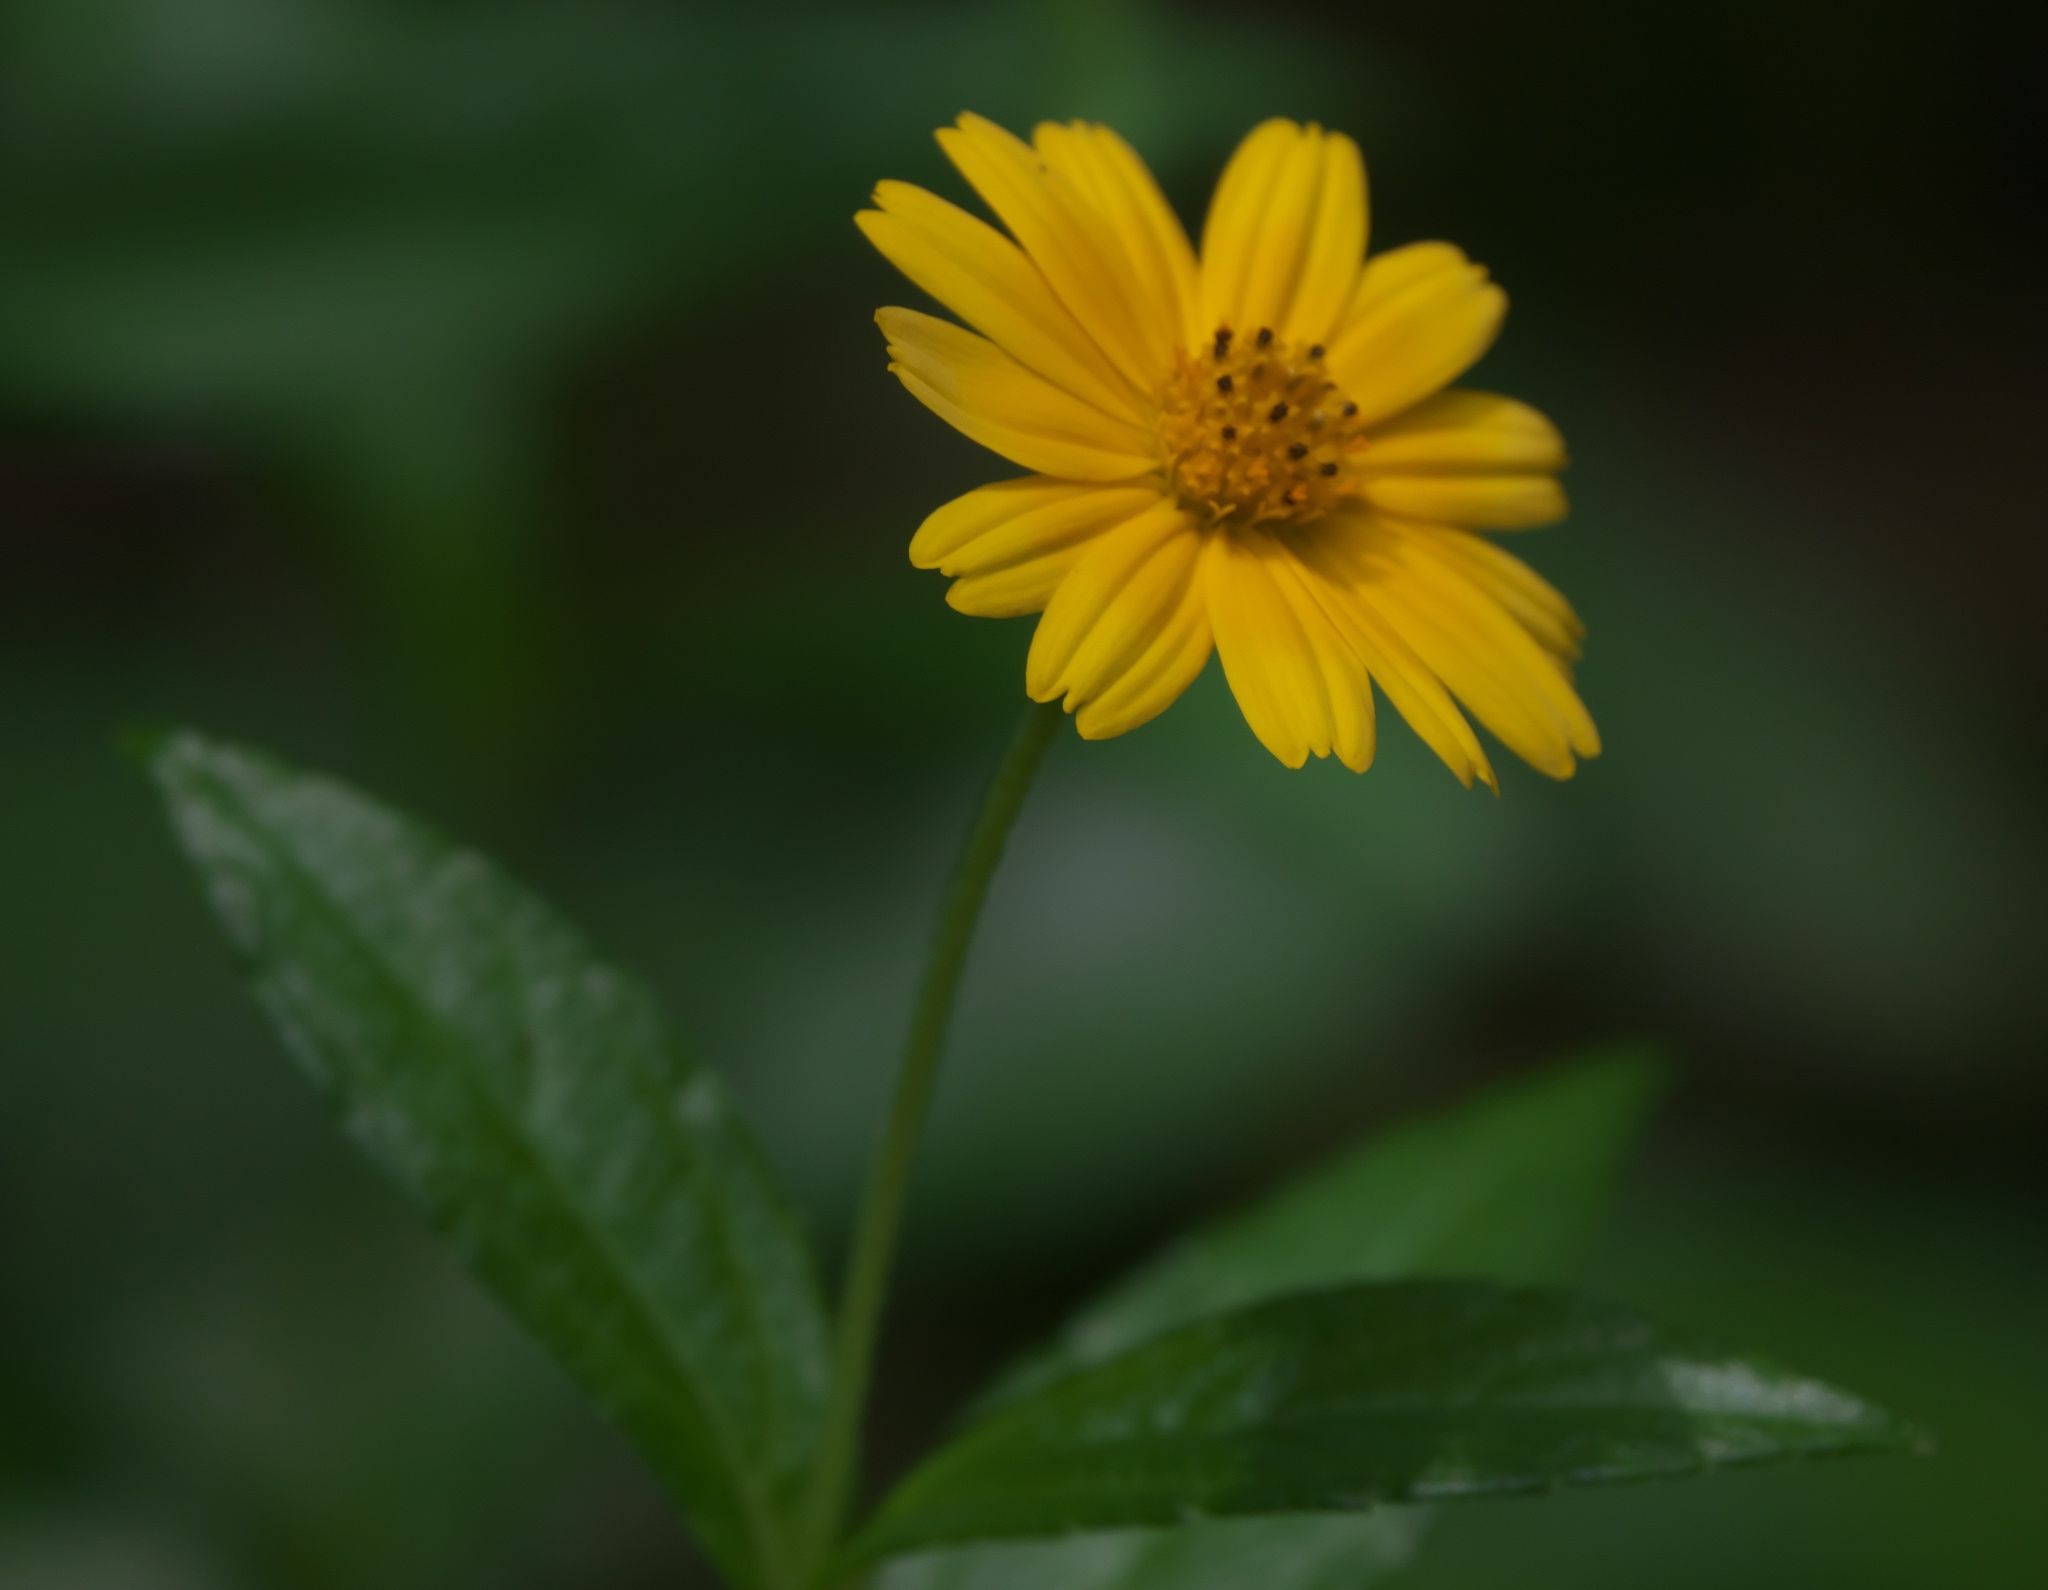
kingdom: Plantae
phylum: Tracheophyta
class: Magnoliopsida
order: Asterales
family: Asteraceae
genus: Sphagneticola
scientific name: Sphagneticola trilobata
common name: Bay biscayne creeping-oxeye
